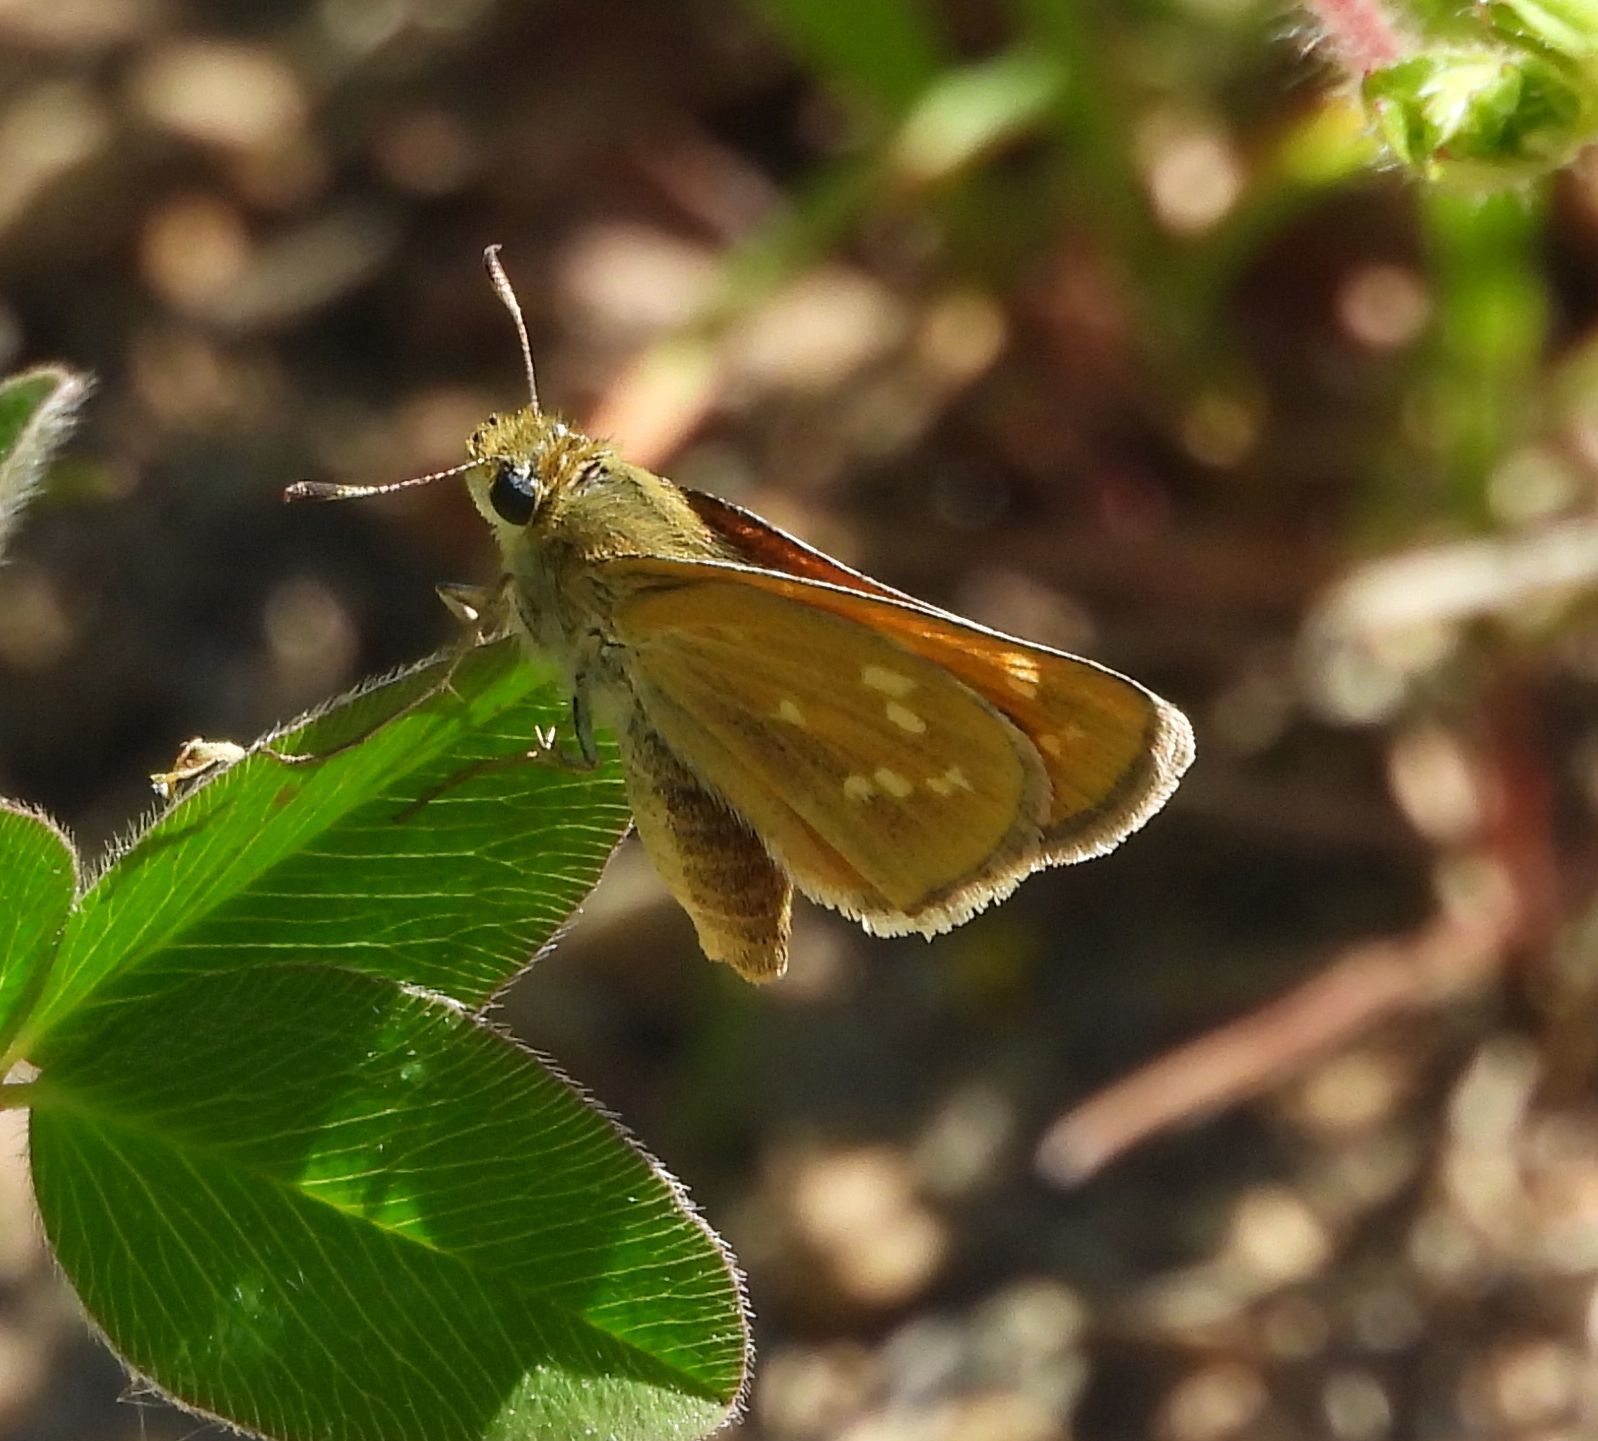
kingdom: Animalia
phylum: Arthropoda
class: Insecta
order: Lepidoptera
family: Hesperiidae
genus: Hesperia
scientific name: Hesperia sassacus
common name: Indian skipper
